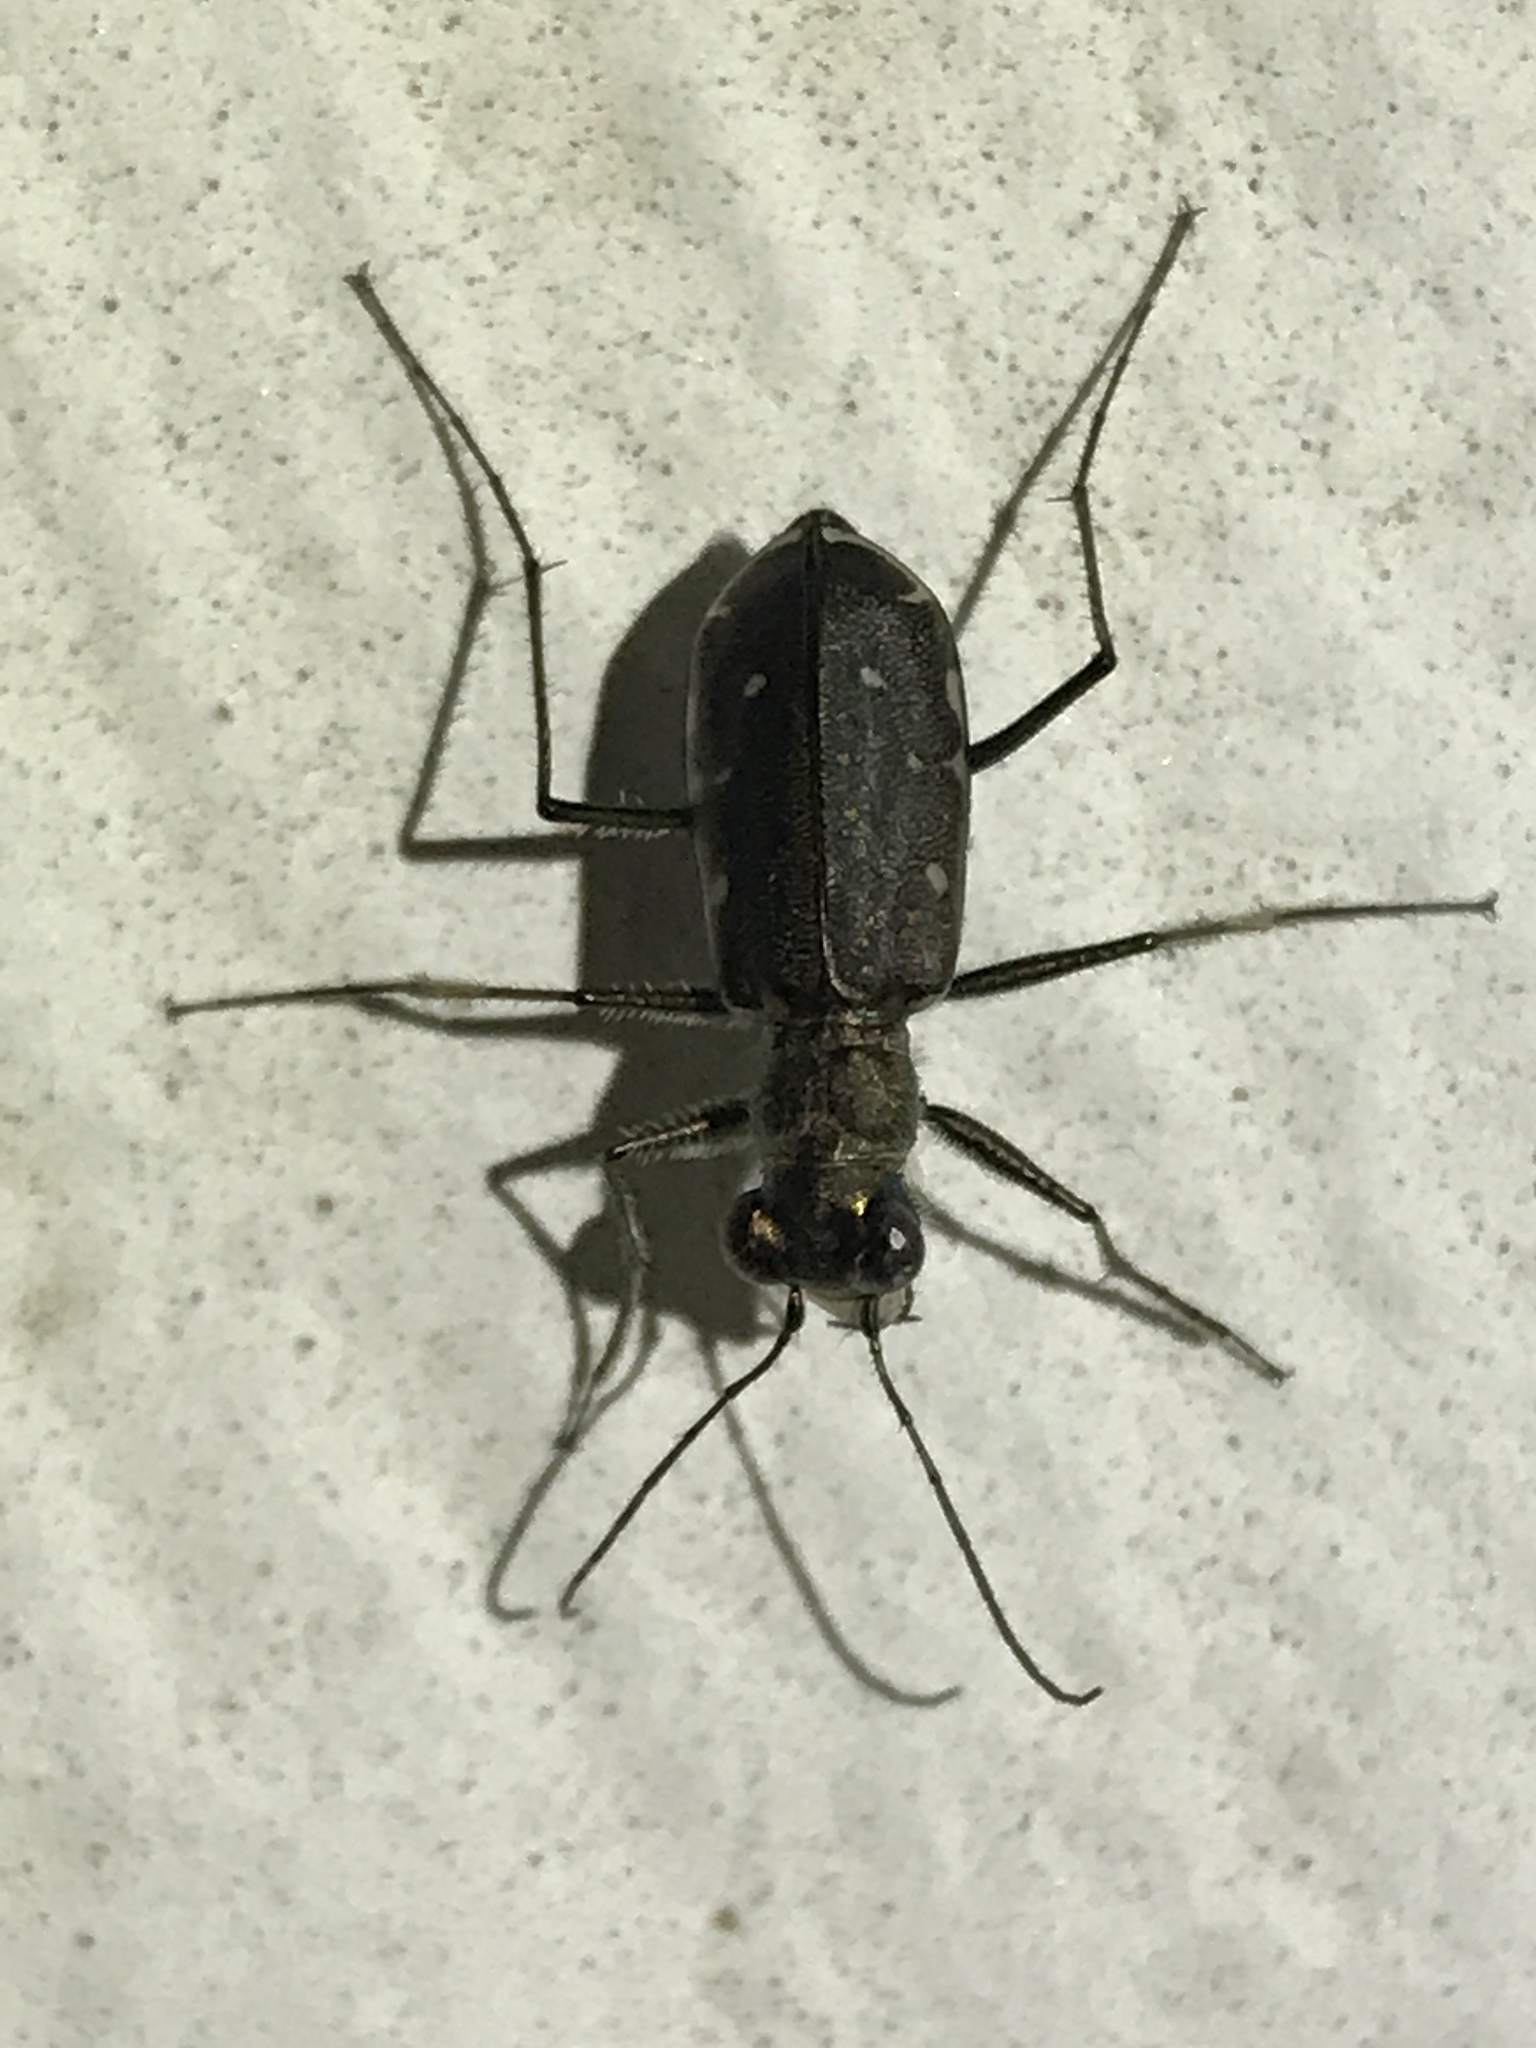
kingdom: Animalia
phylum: Arthropoda
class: Insecta
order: Coleoptera
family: Carabidae
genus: Cicindela
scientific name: Cicindela punctulata
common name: Punctured tiger beetle
